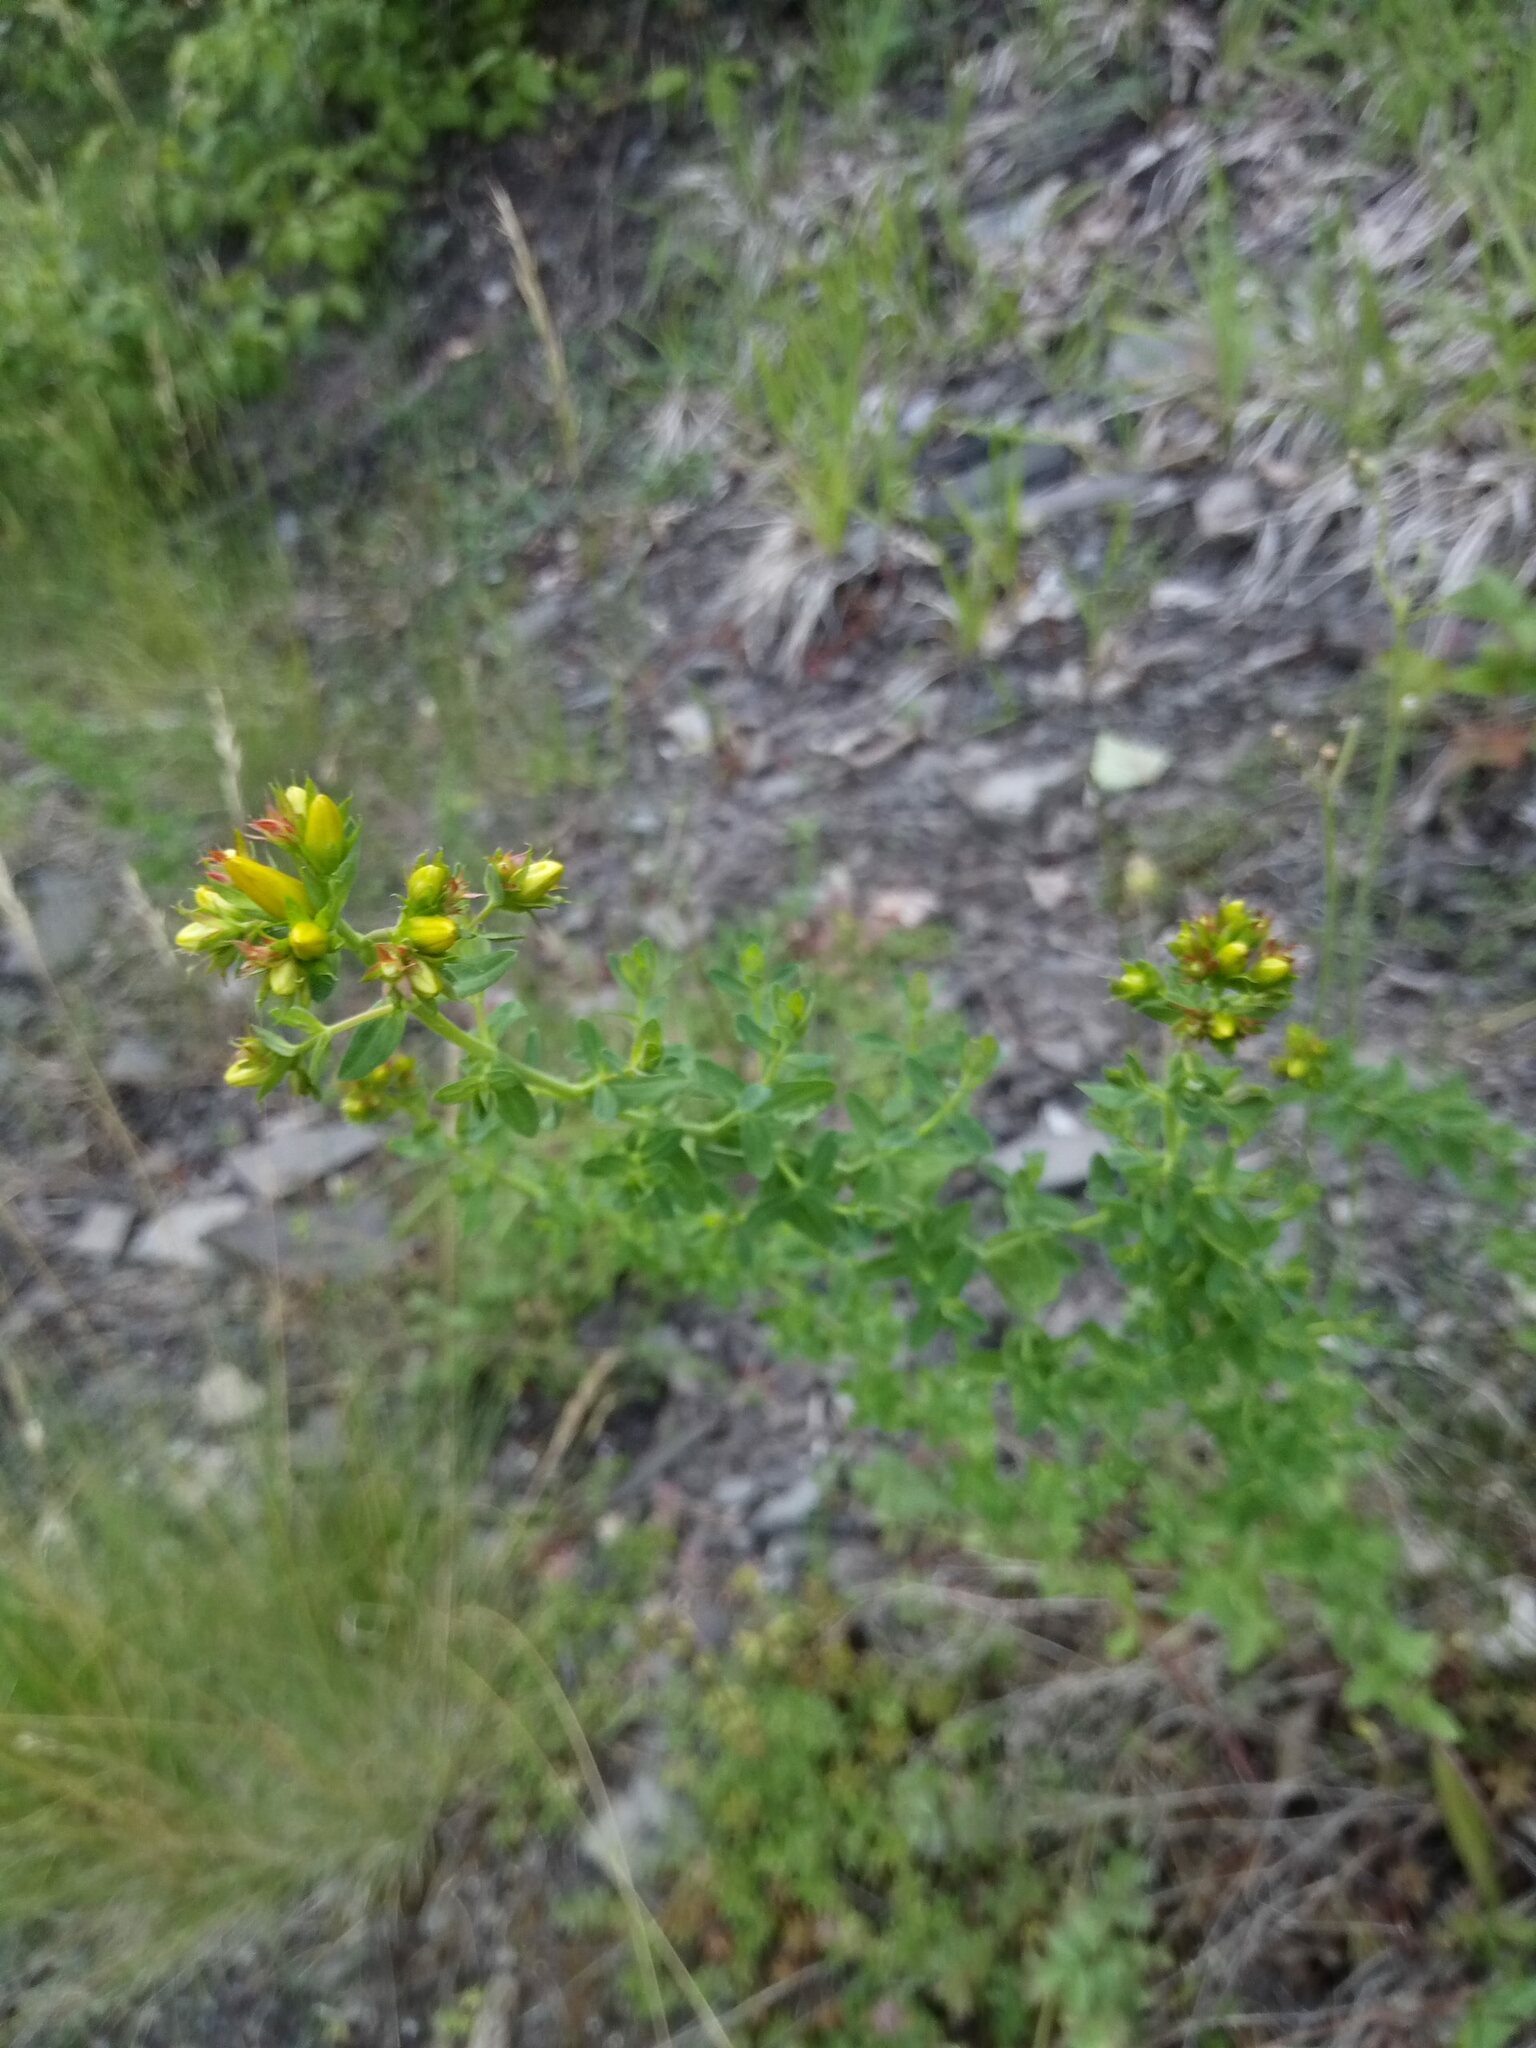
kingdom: Plantae
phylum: Tracheophyta
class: Magnoliopsida
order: Malpighiales
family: Hypericaceae
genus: Hypericum
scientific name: Hypericum perforatum
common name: Common st. johnswort
